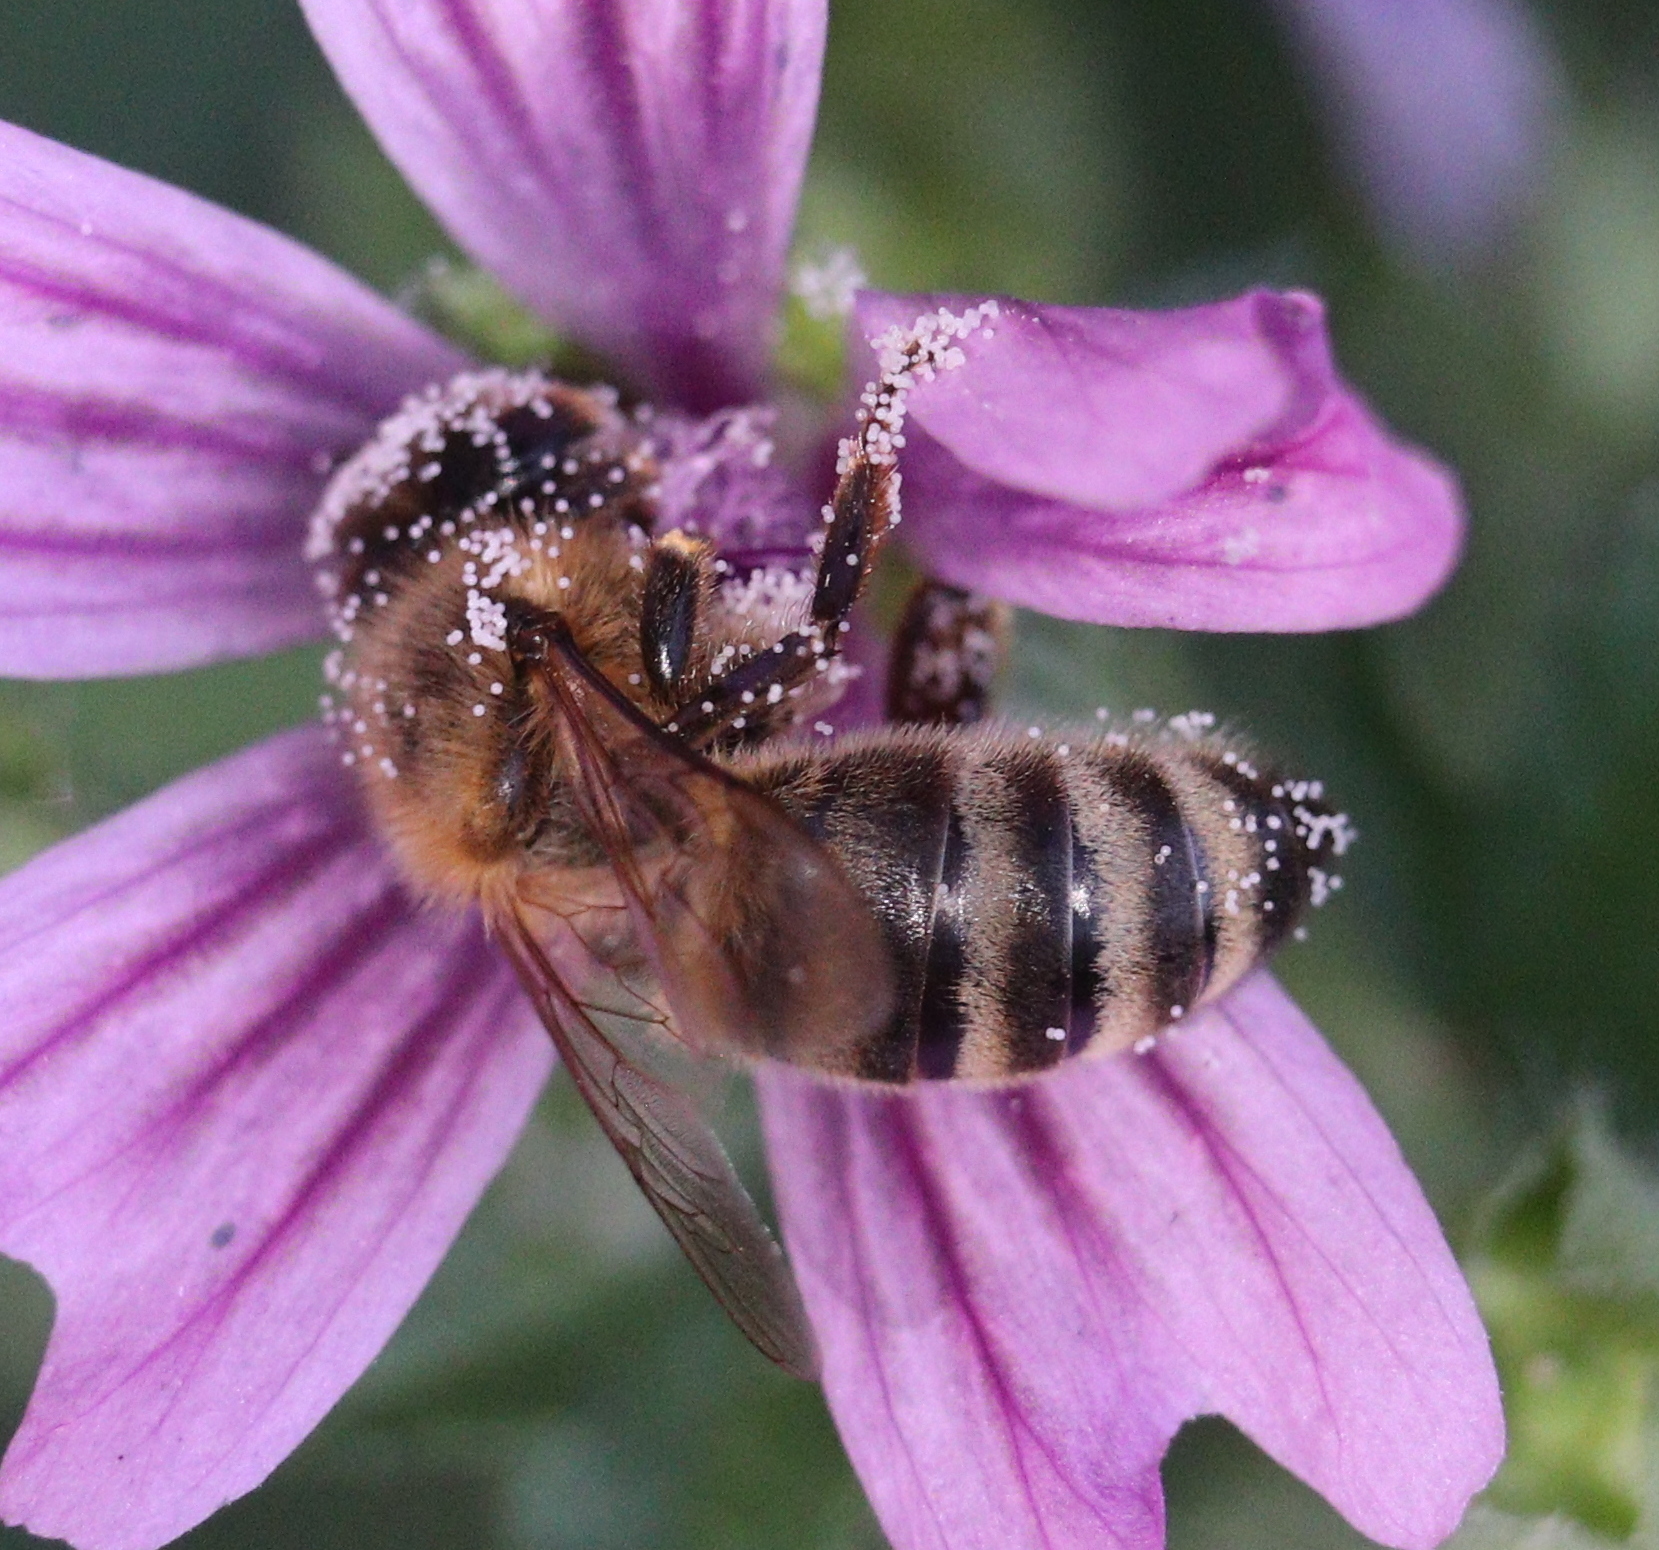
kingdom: Animalia
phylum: Arthropoda
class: Insecta
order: Hymenoptera
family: Apidae
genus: Apis
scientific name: Apis mellifera
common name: Honey bee
